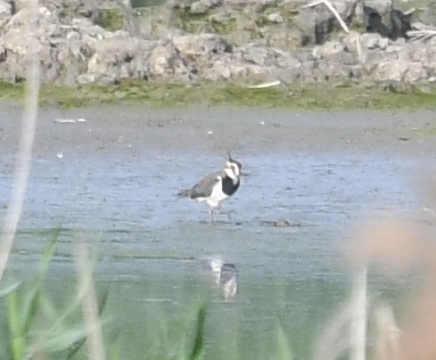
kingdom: Animalia
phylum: Chordata
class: Aves
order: Charadriiformes
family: Charadriidae
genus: Vanellus
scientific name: Vanellus vanellus
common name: Northern lapwing
